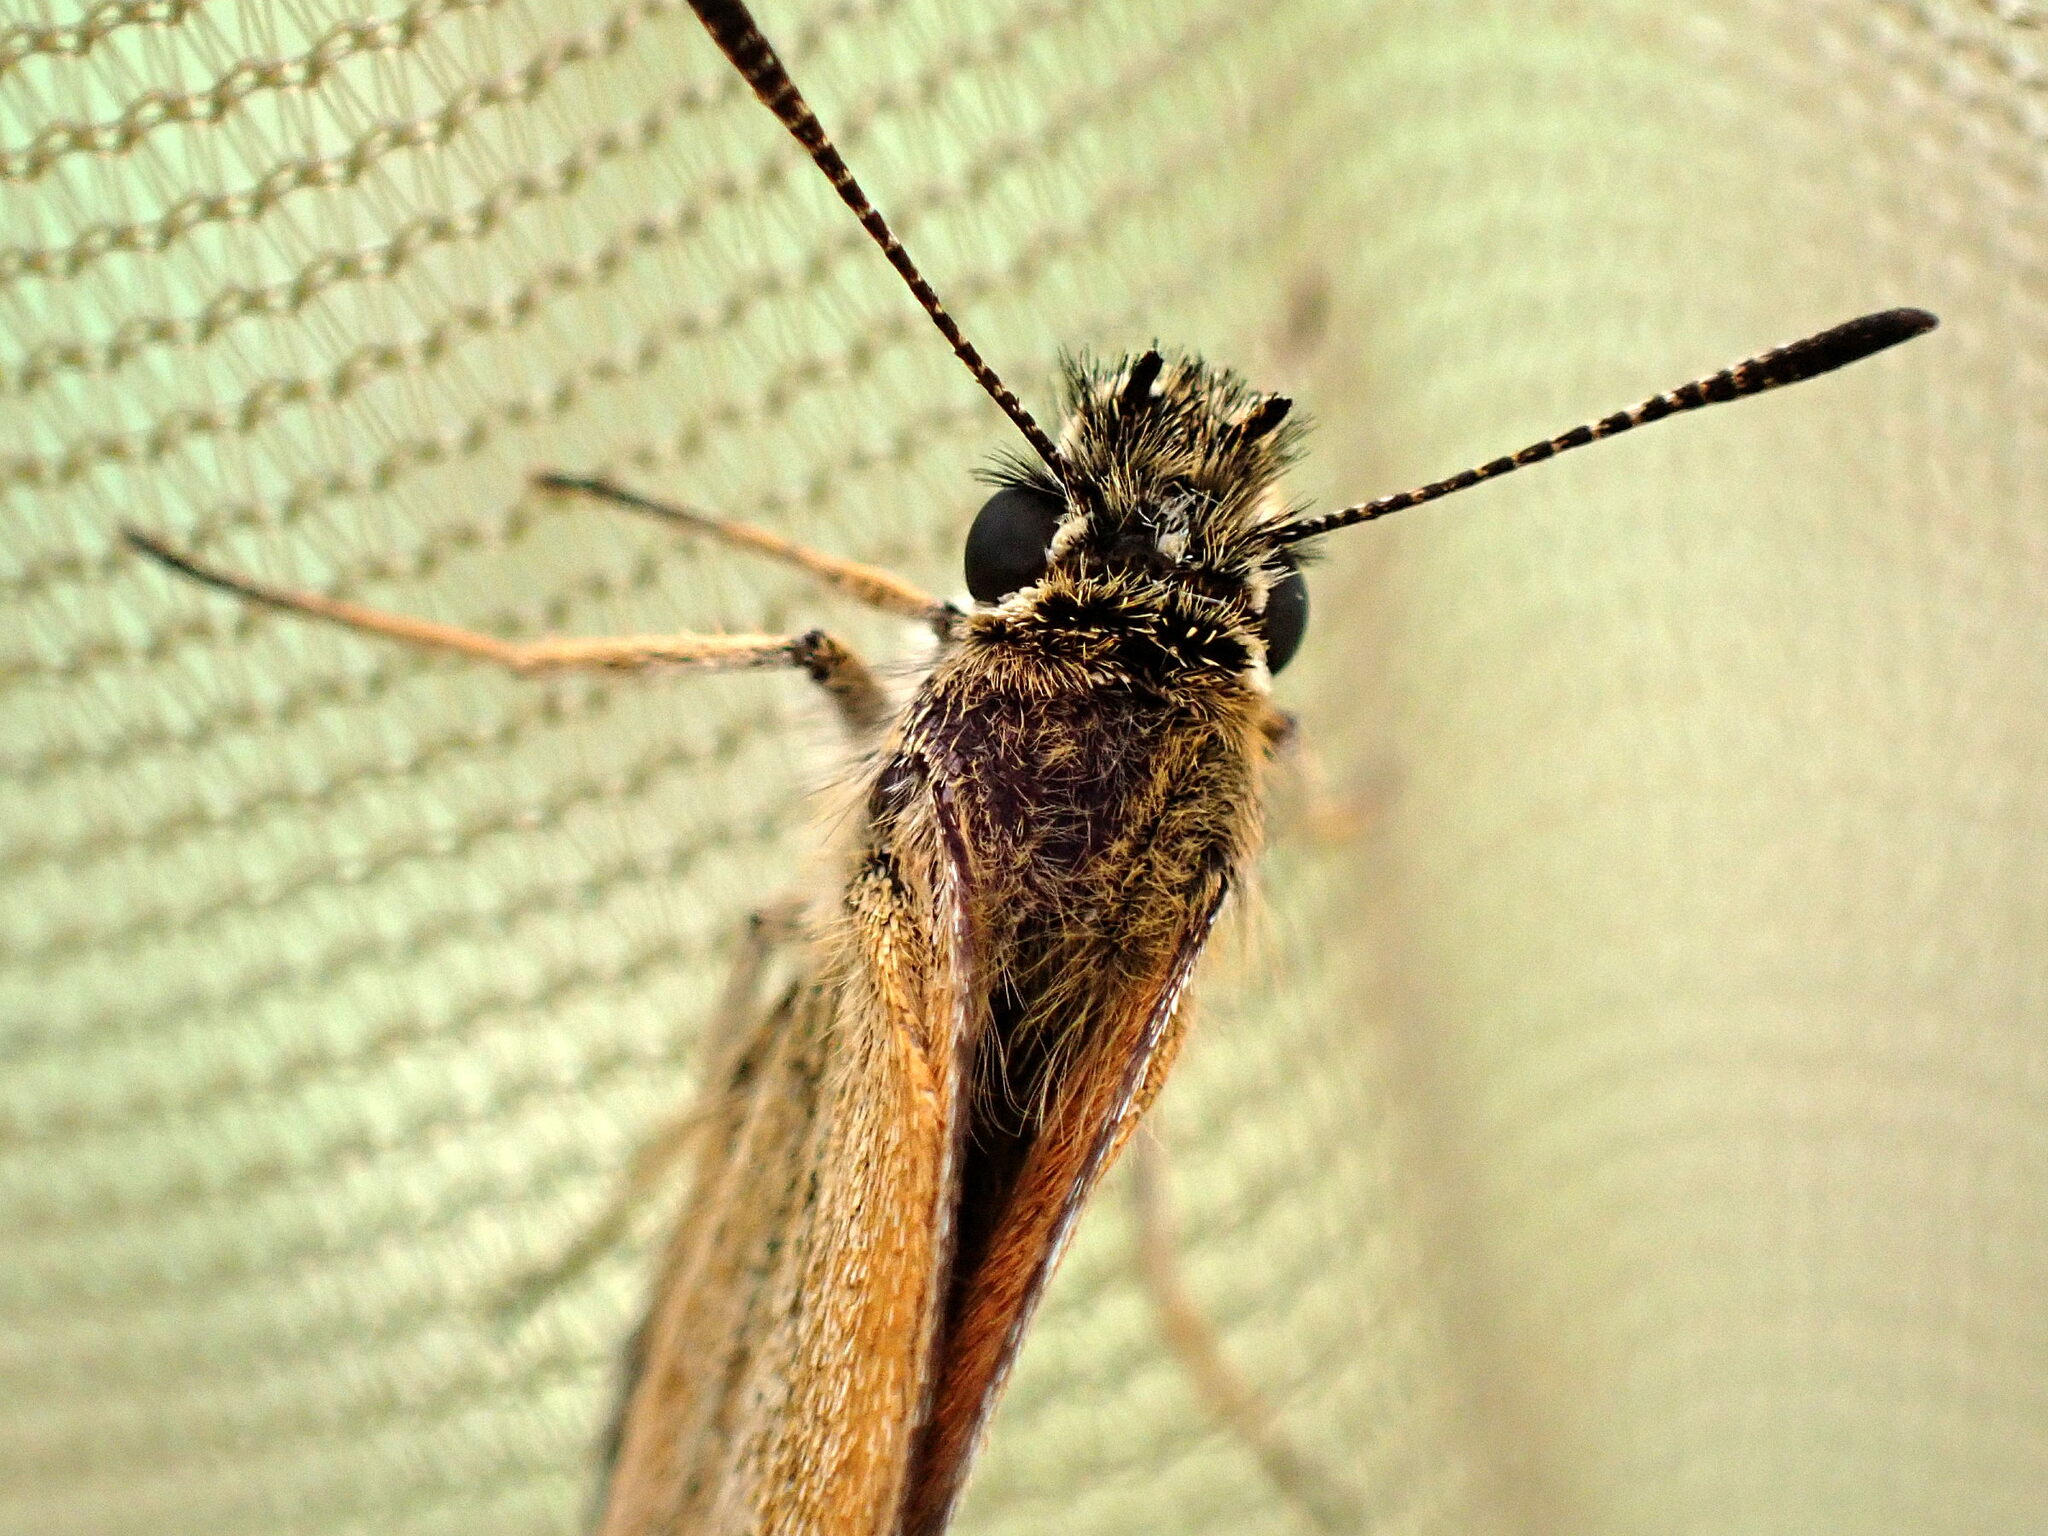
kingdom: Animalia
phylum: Arthropoda
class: Insecta
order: Lepidoptera
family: Hesperiidae
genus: Thymelicus
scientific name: Thymelicus lineola
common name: Essex skipper
